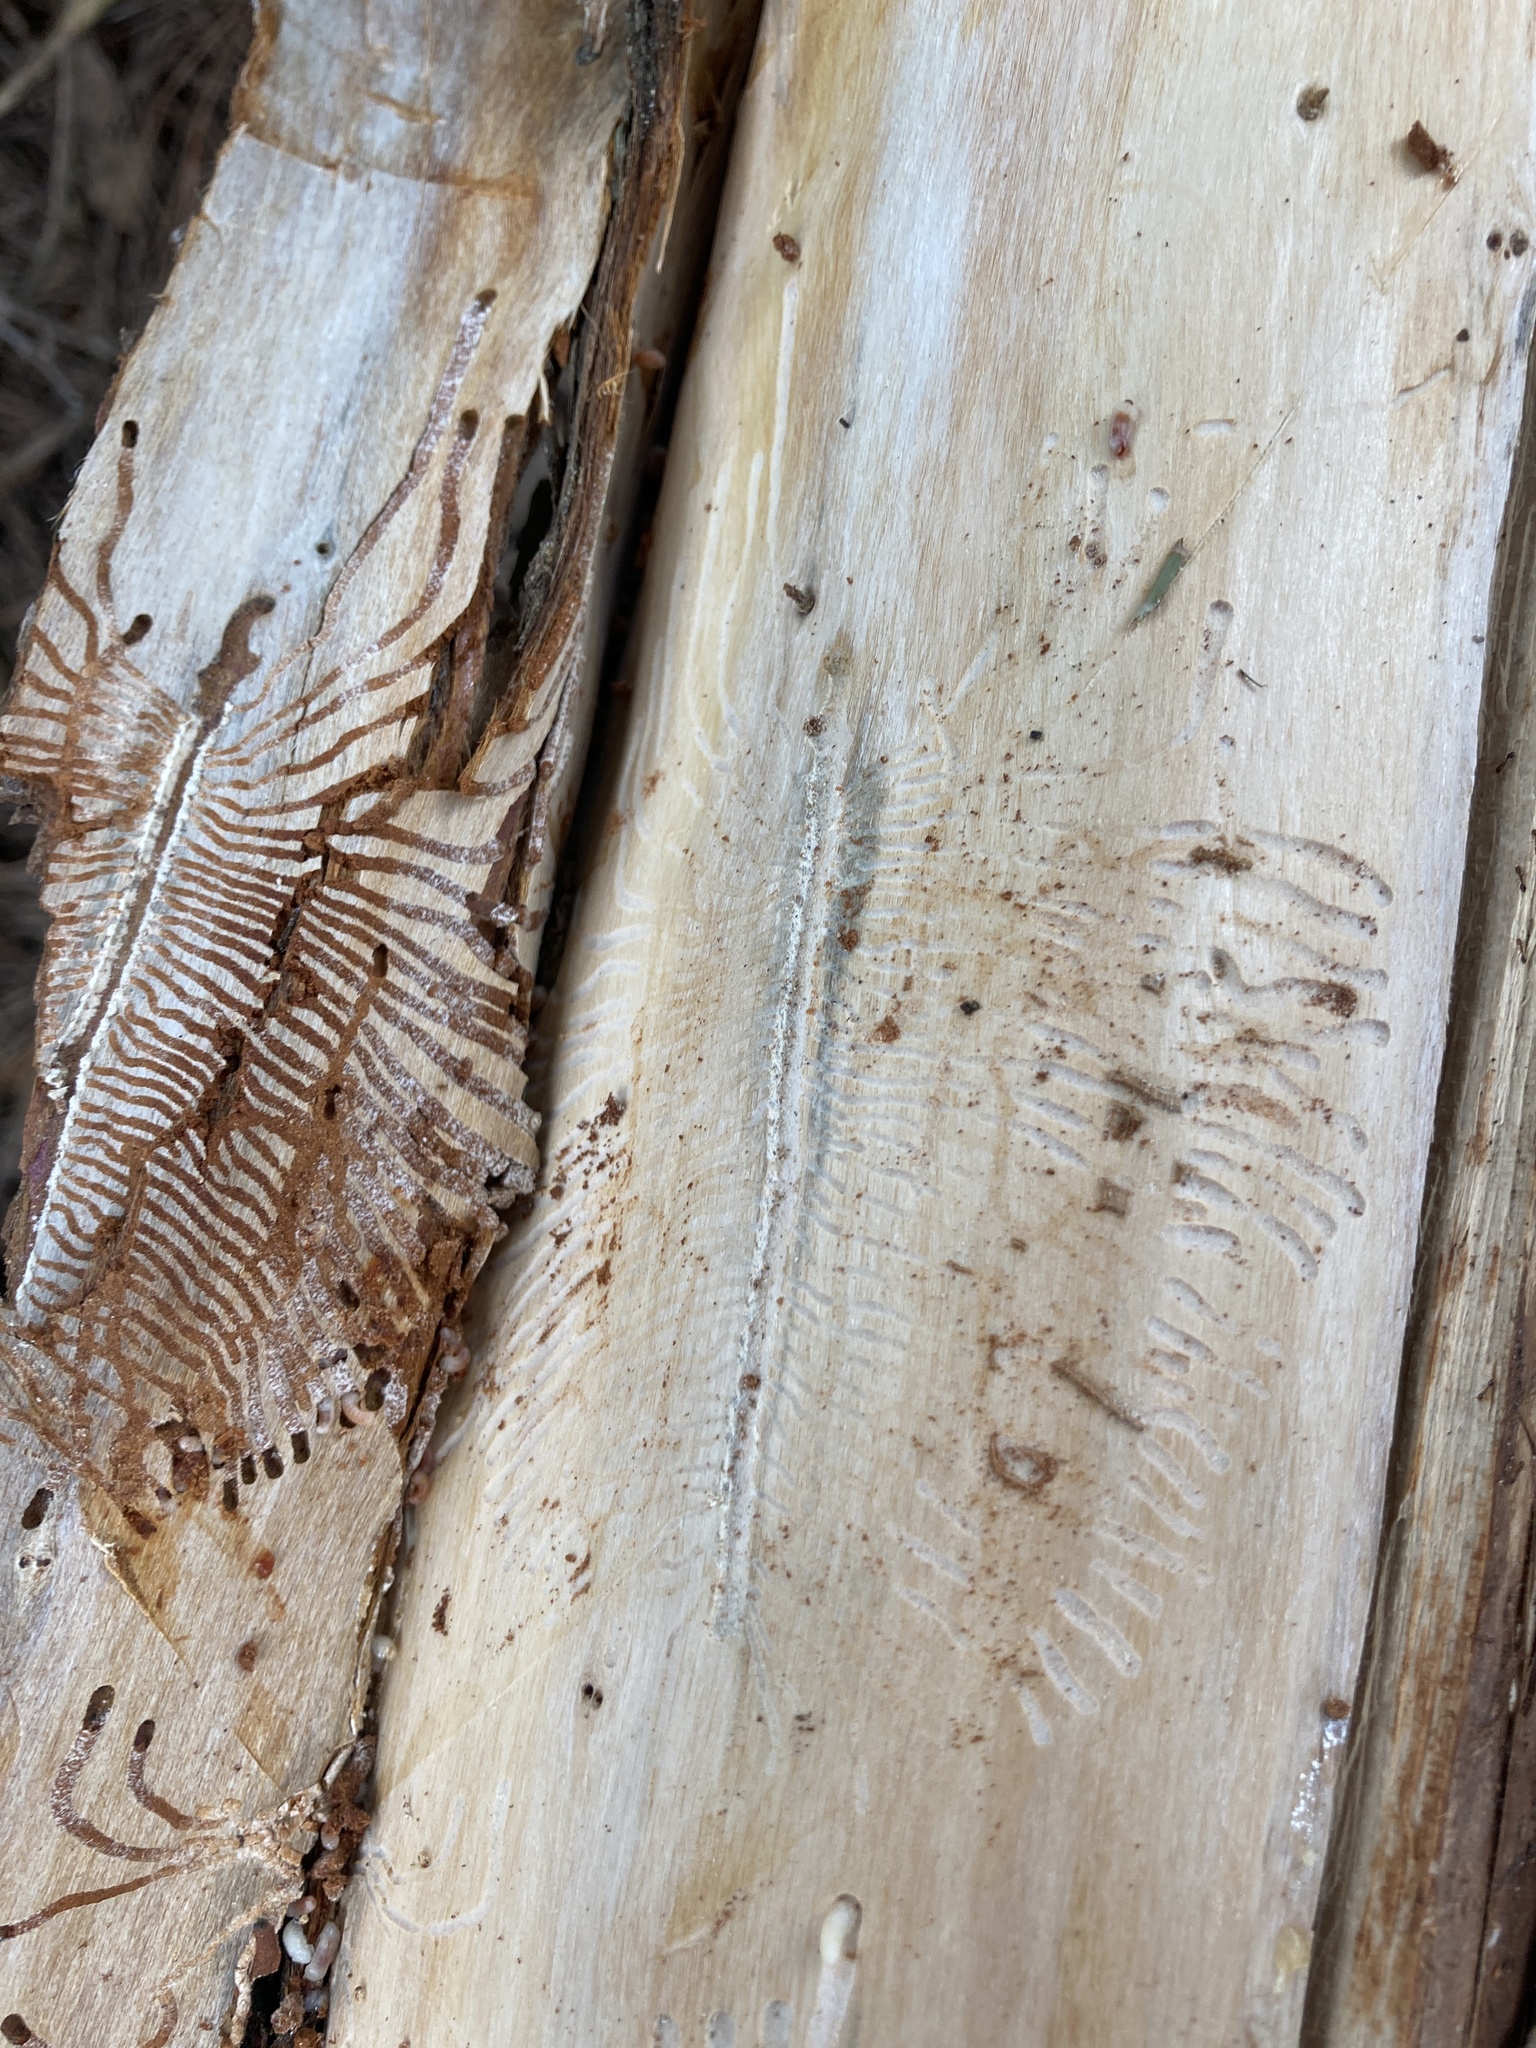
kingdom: Animalia
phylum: Arthropoda
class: Insecta
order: Coleoptera
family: Curculionidae
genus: Phloeosinus
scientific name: Phloeosinus cupressi
